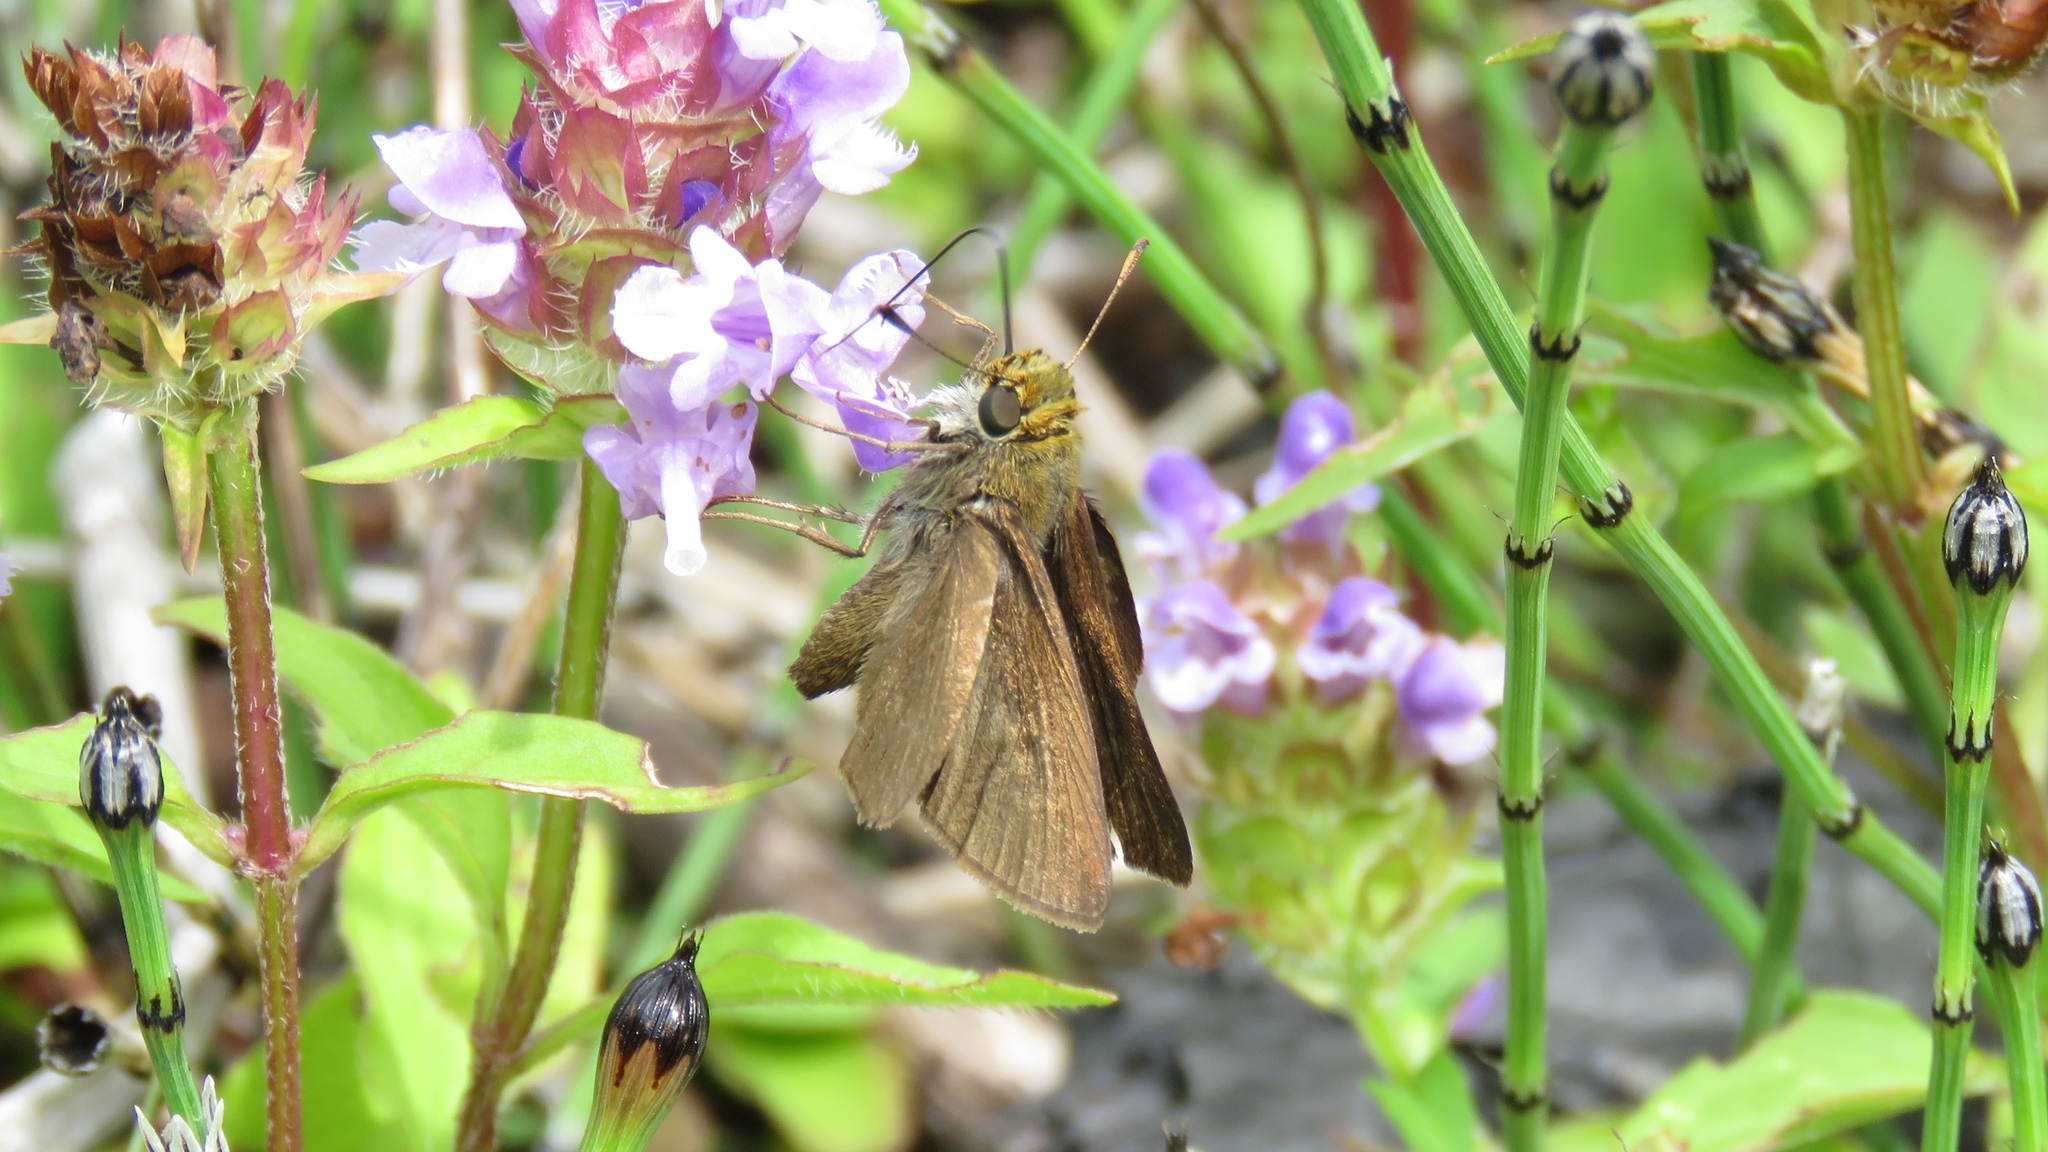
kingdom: Animalia
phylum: Arthropoda
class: Insecta
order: Lepidoptera
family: Hesperiidae
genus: Euphyes
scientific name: Euphyes vestris
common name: Dun skipper
